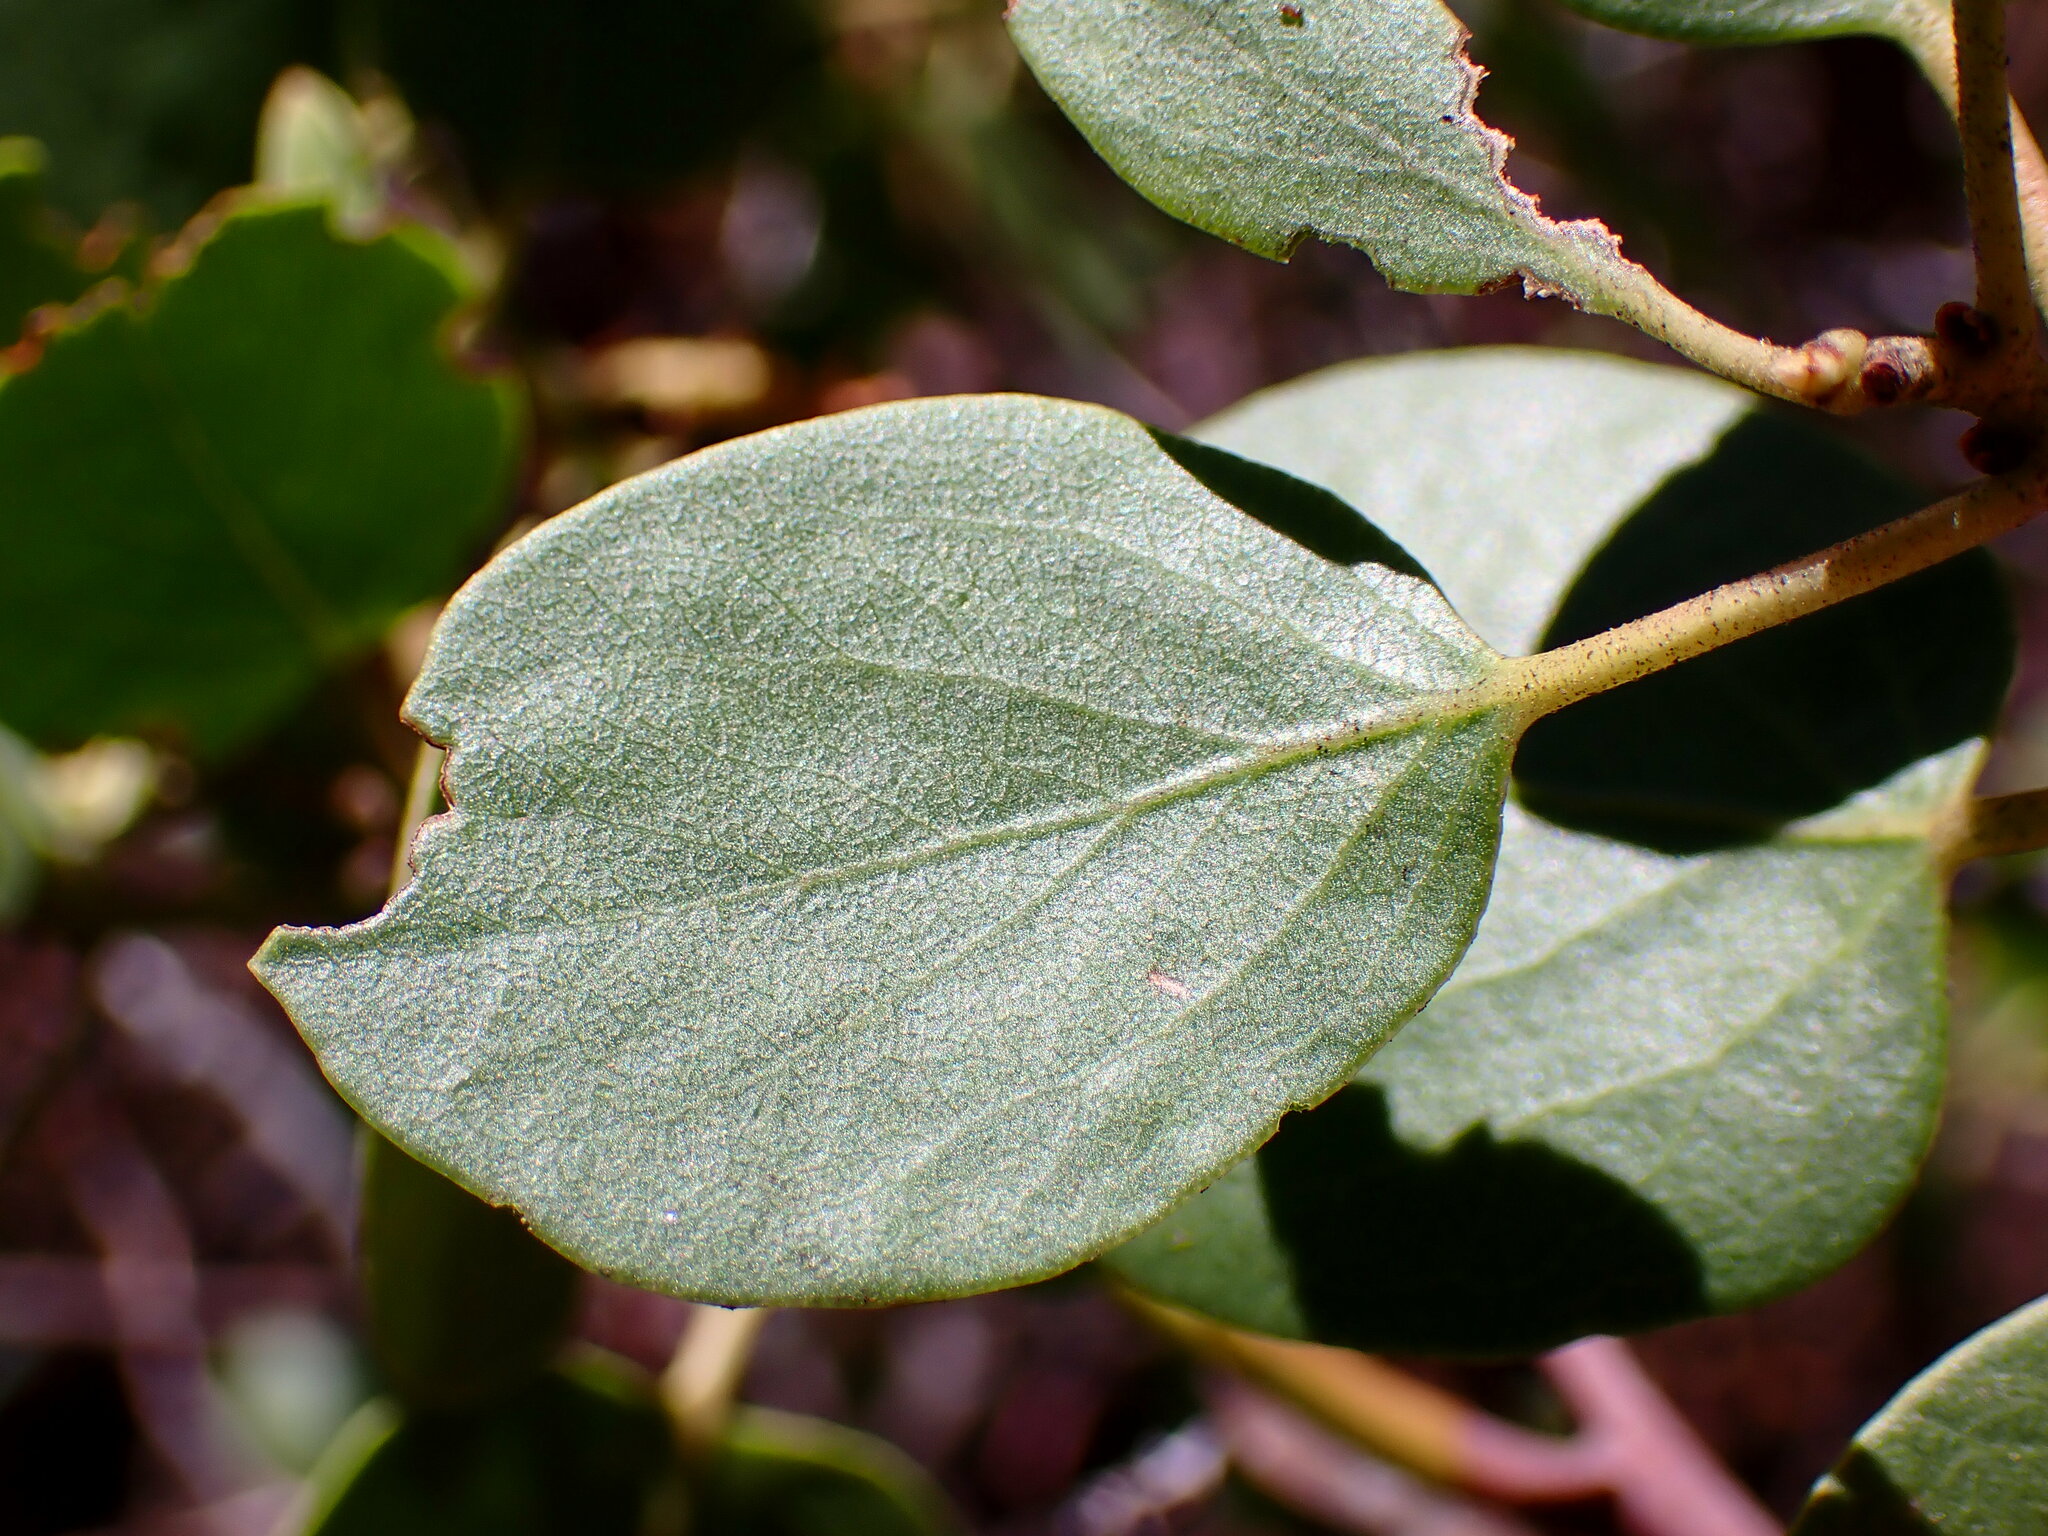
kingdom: Plantae
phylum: Tracheophyta
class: Magnoliopsida
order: Ericales
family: Ericaceae
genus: Arctostaphylos
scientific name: Arctostaphylos patula
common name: Green-leaf manzanita
